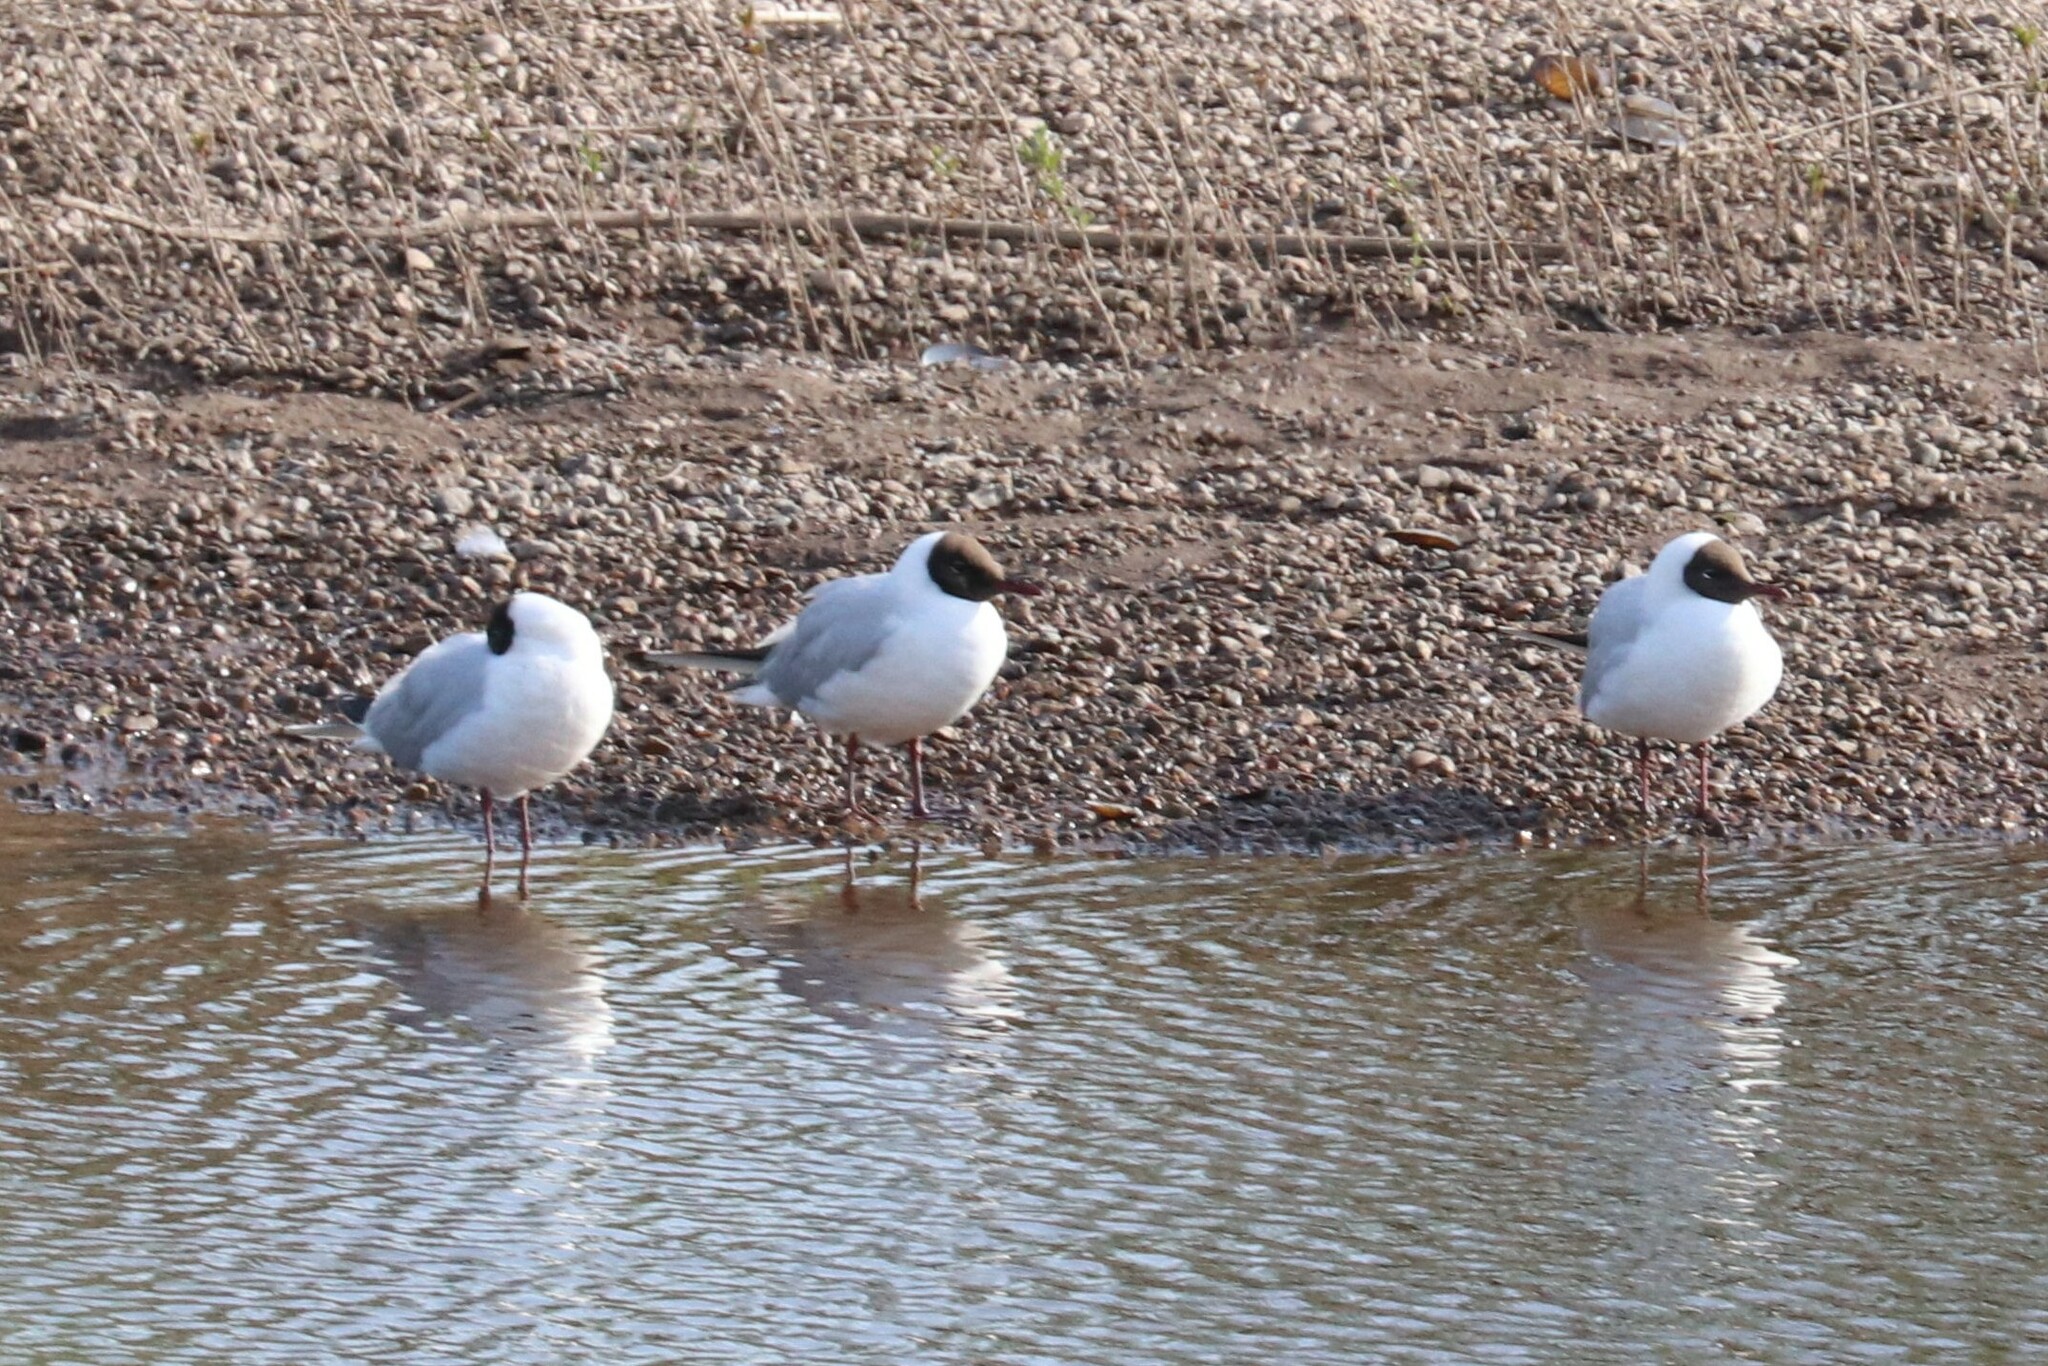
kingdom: Animalia
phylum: Chordata
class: Aves
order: Charadriiformes
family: Laridae
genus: Chroicocephalus
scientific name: Chroicocephalus ridibundus
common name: Black-headed gull
